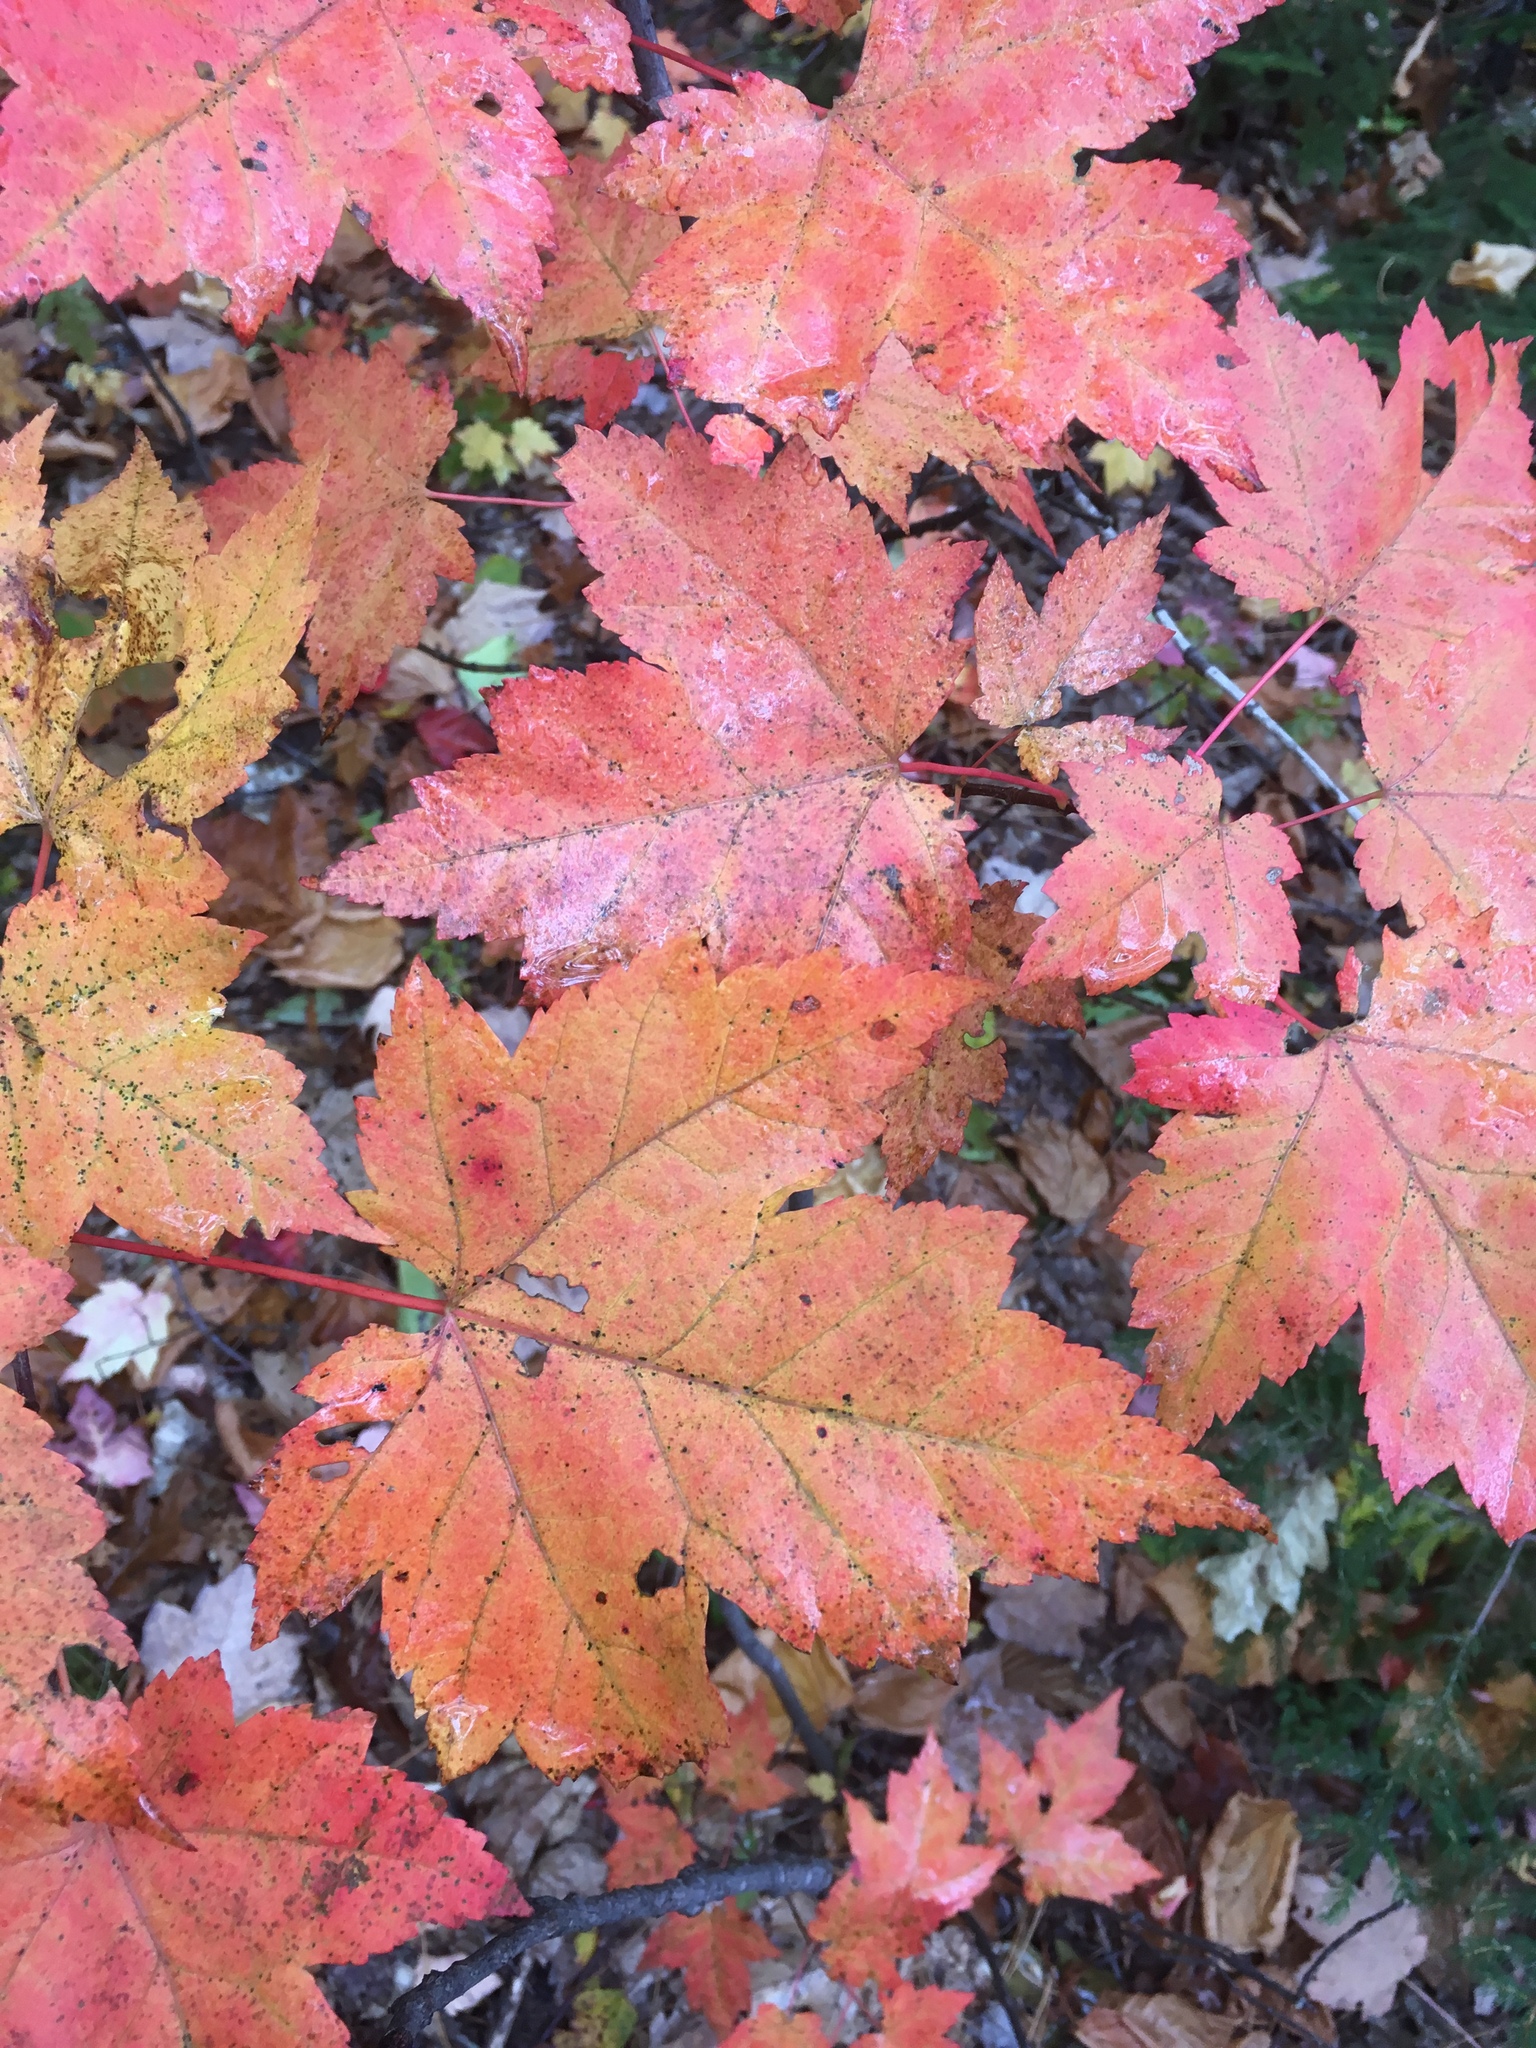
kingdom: Plantae
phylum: Tracheophyta
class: Magnoliopsida
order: Sapindales
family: Sapindaceae
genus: Acer
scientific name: Acer spicatum
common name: Mountain maple
